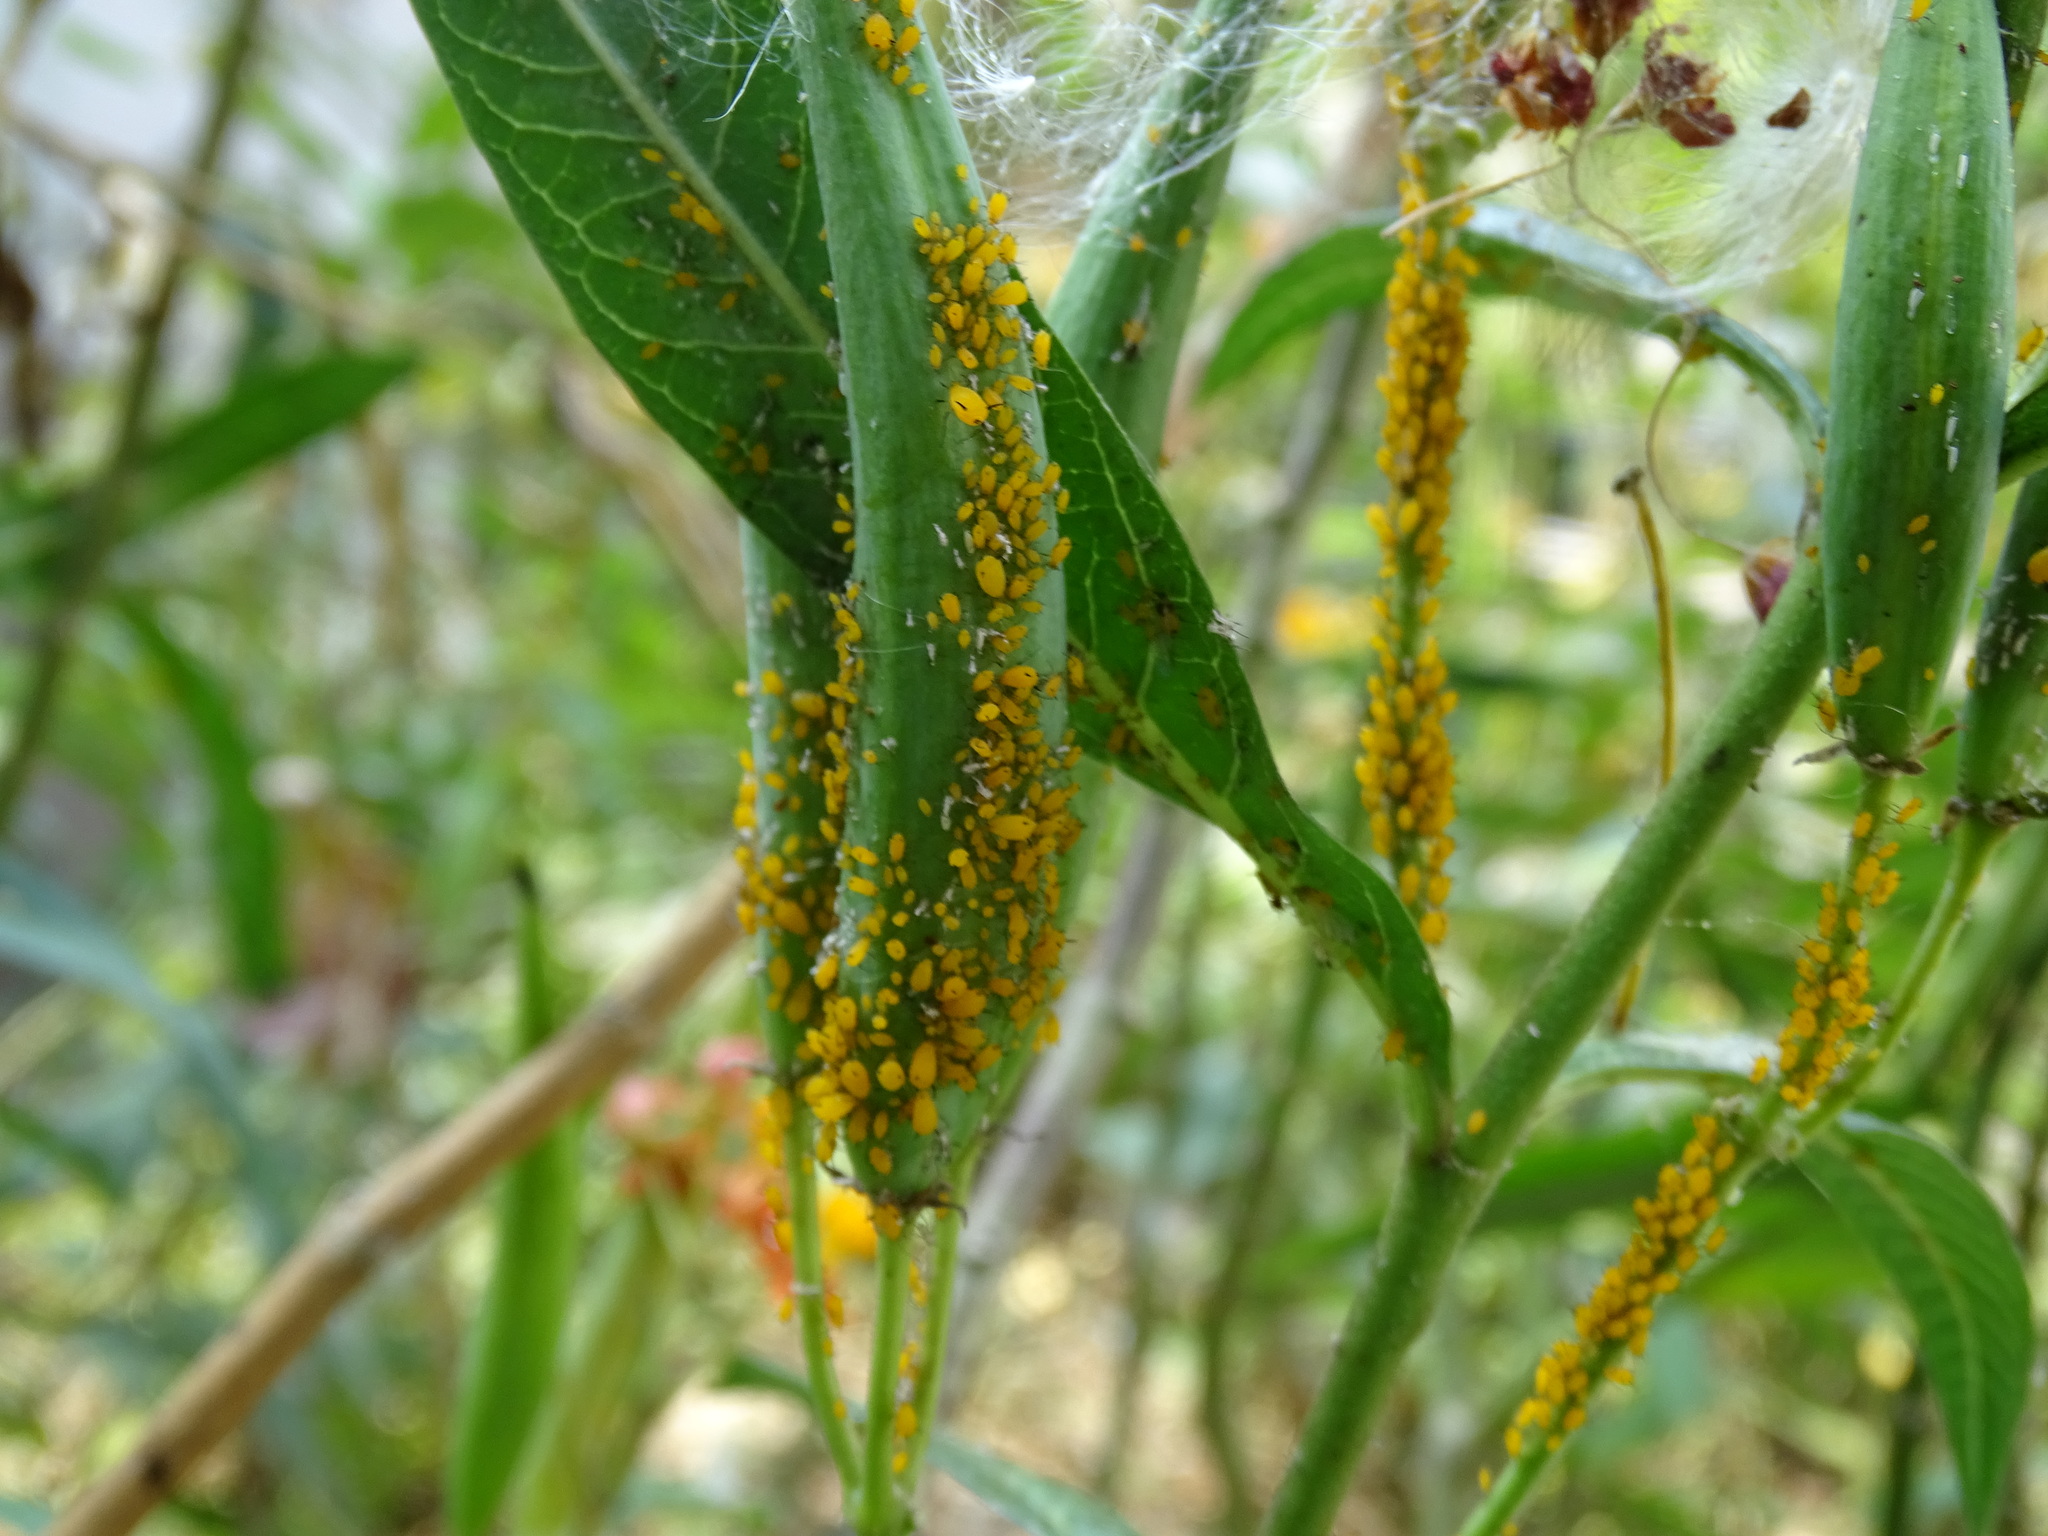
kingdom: Animalia
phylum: Arthropoda
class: Insecta
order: Hemiptera
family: Aphididae
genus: Aphis
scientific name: Aphis nerii
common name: Oleander aphid
